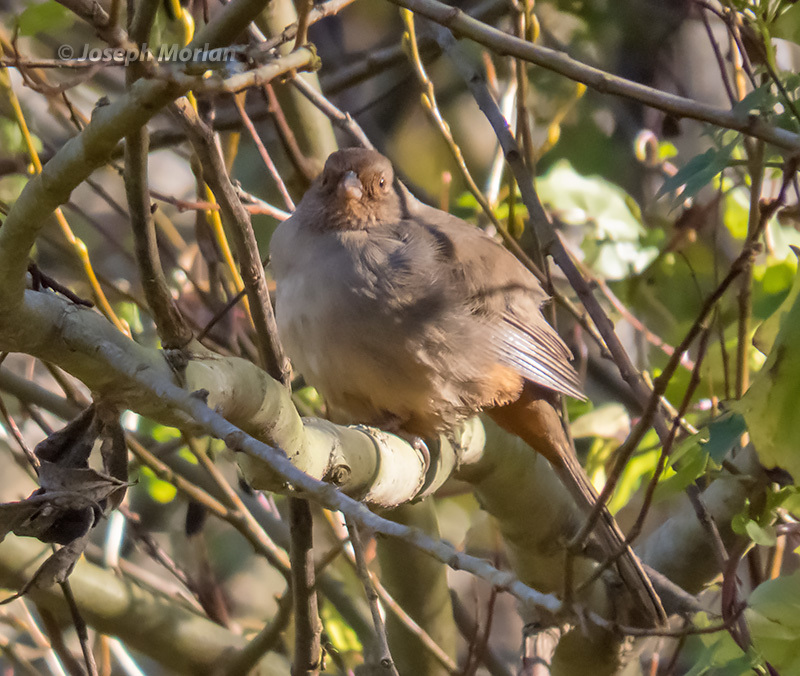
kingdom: Animalia
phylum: Chordata
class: Aves
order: Passeriformes
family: Passerellidae
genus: Melozone
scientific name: Melozone crissalis
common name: California towhee
